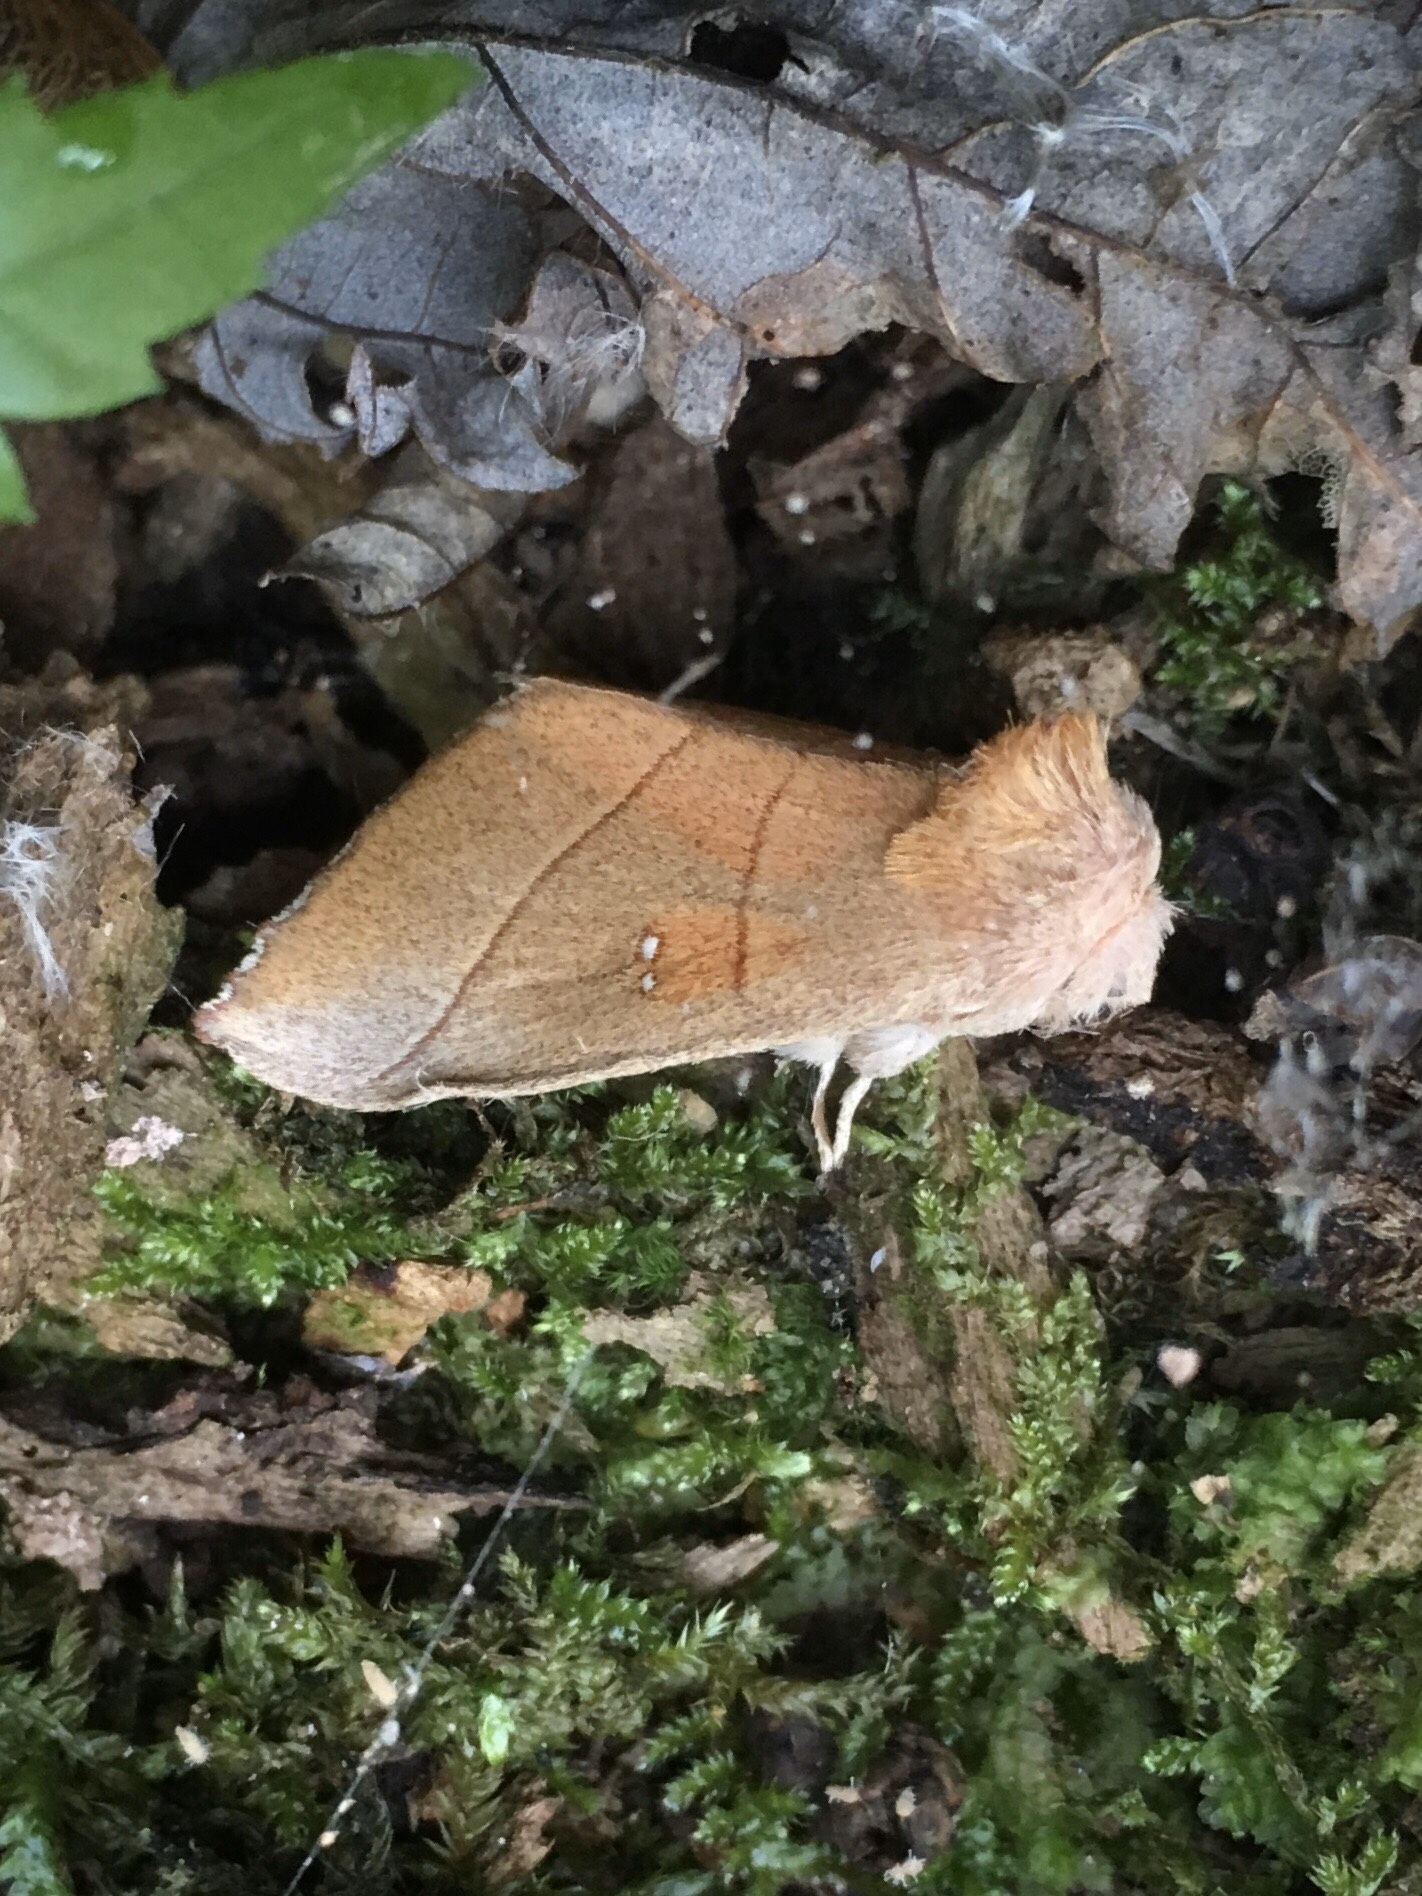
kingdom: Animalia
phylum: Arthropoda
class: Insecta
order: Lepidoptera
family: Notodontidae
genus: Nadata
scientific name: Nadata gibbosa
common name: White-dotted prominent
